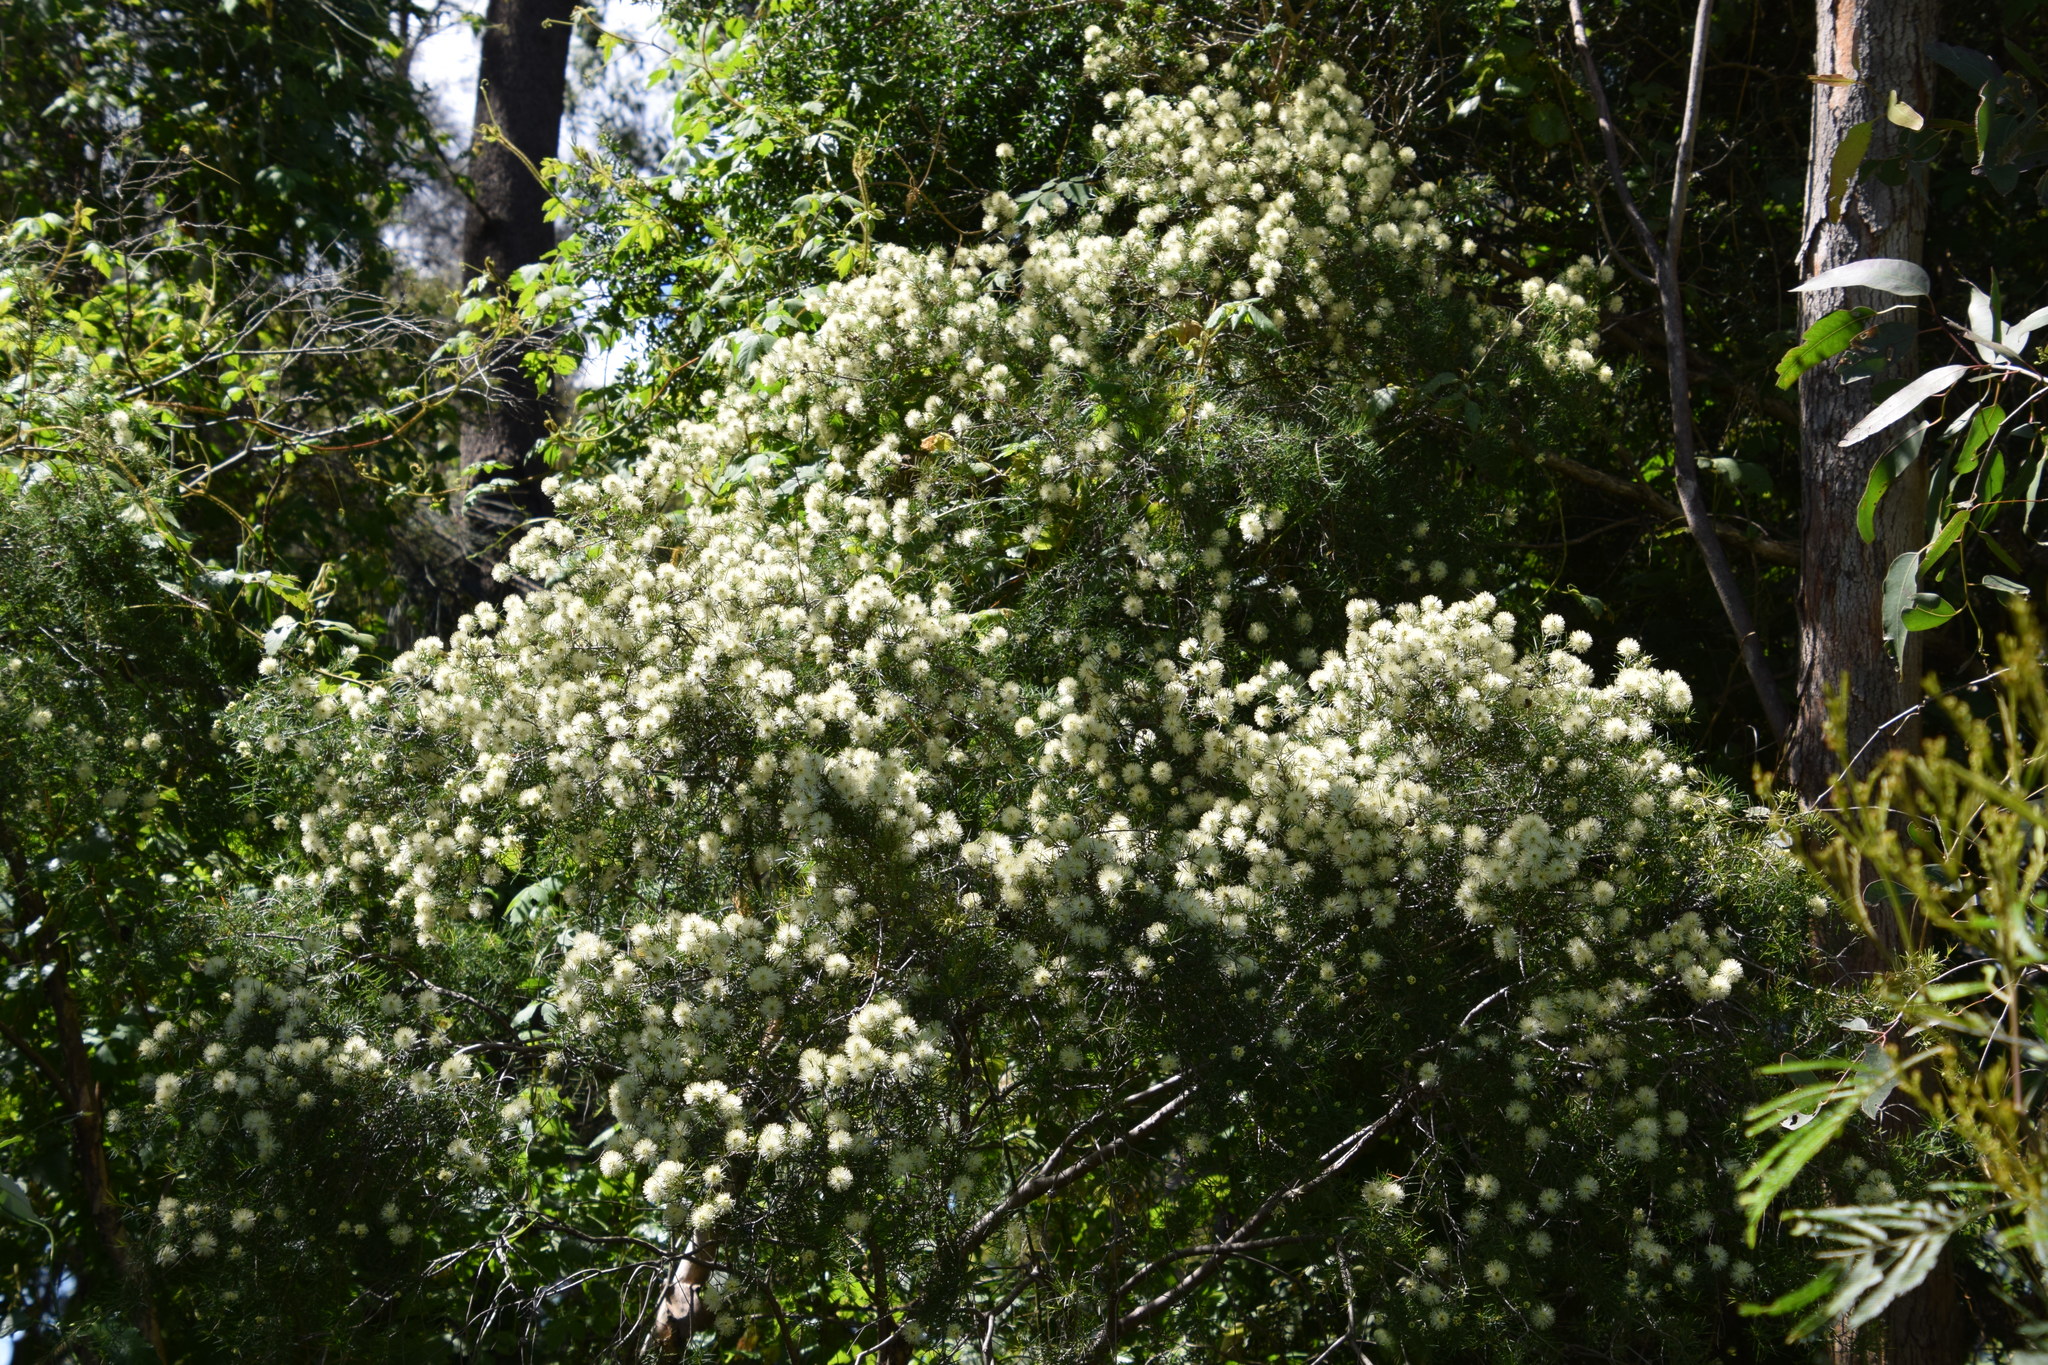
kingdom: Plantae
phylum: Tracheophyta
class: Magnoliopsida
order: Myrtales
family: Myrtaceae
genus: Melaleuca
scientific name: Melaleuca nodosa
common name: Prickly-leaf paperbark
